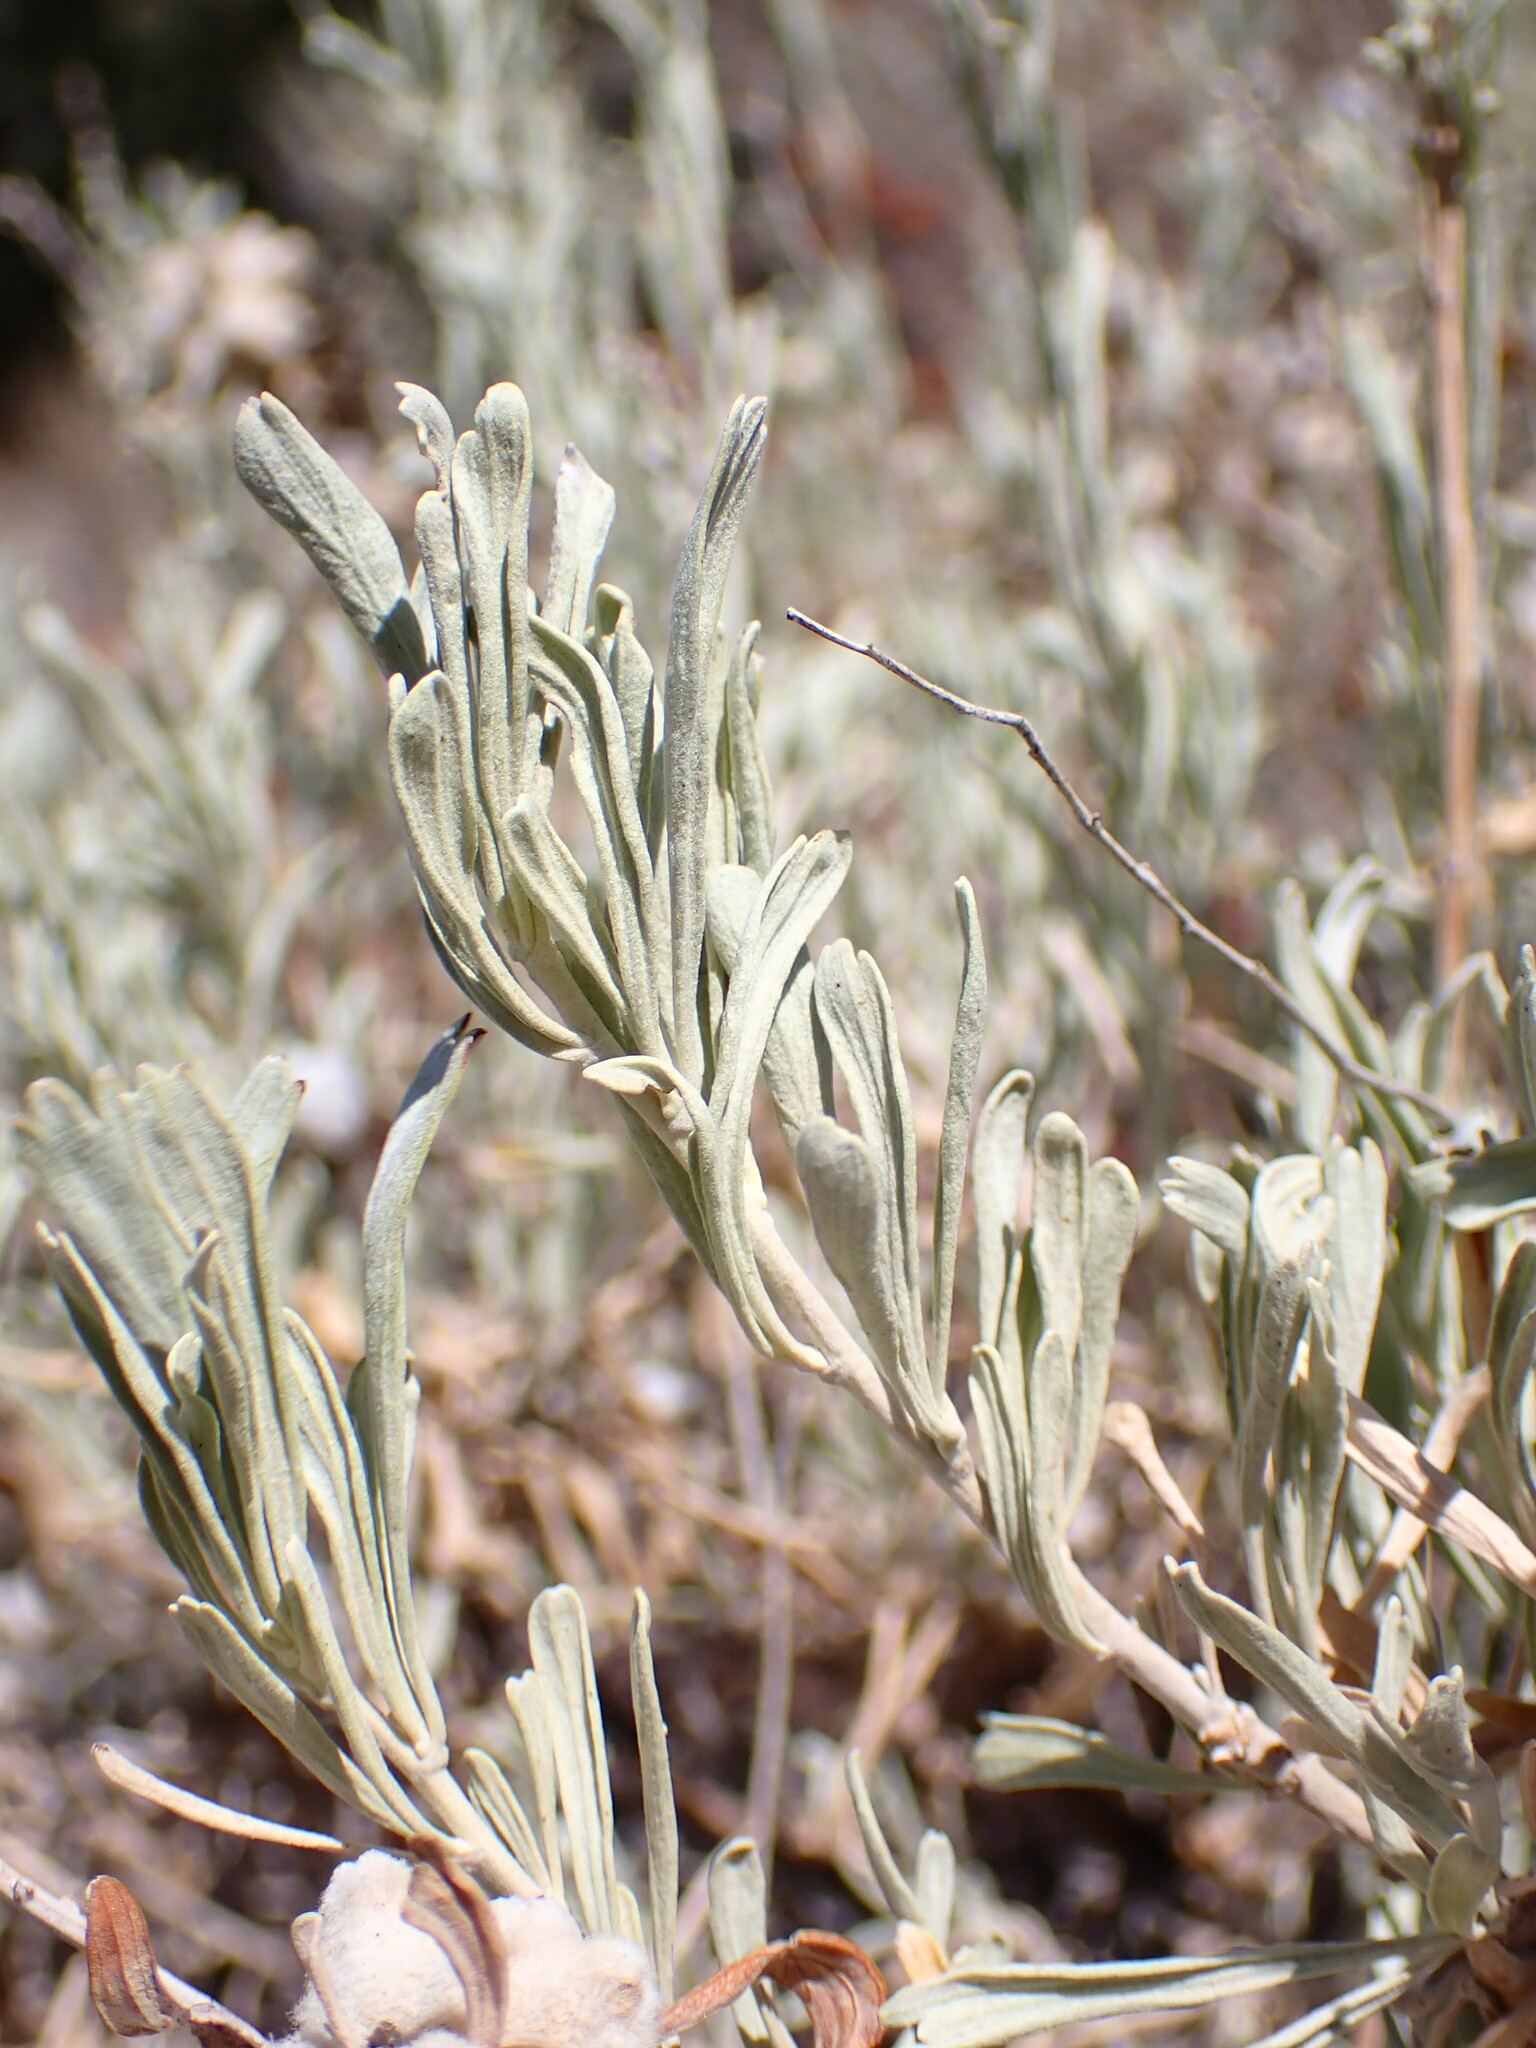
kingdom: Plantae
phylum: Tracheophyta
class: Magnoliopsida
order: Asterales
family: Asteraceae
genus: Artemisia
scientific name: Artemisia tridentata
